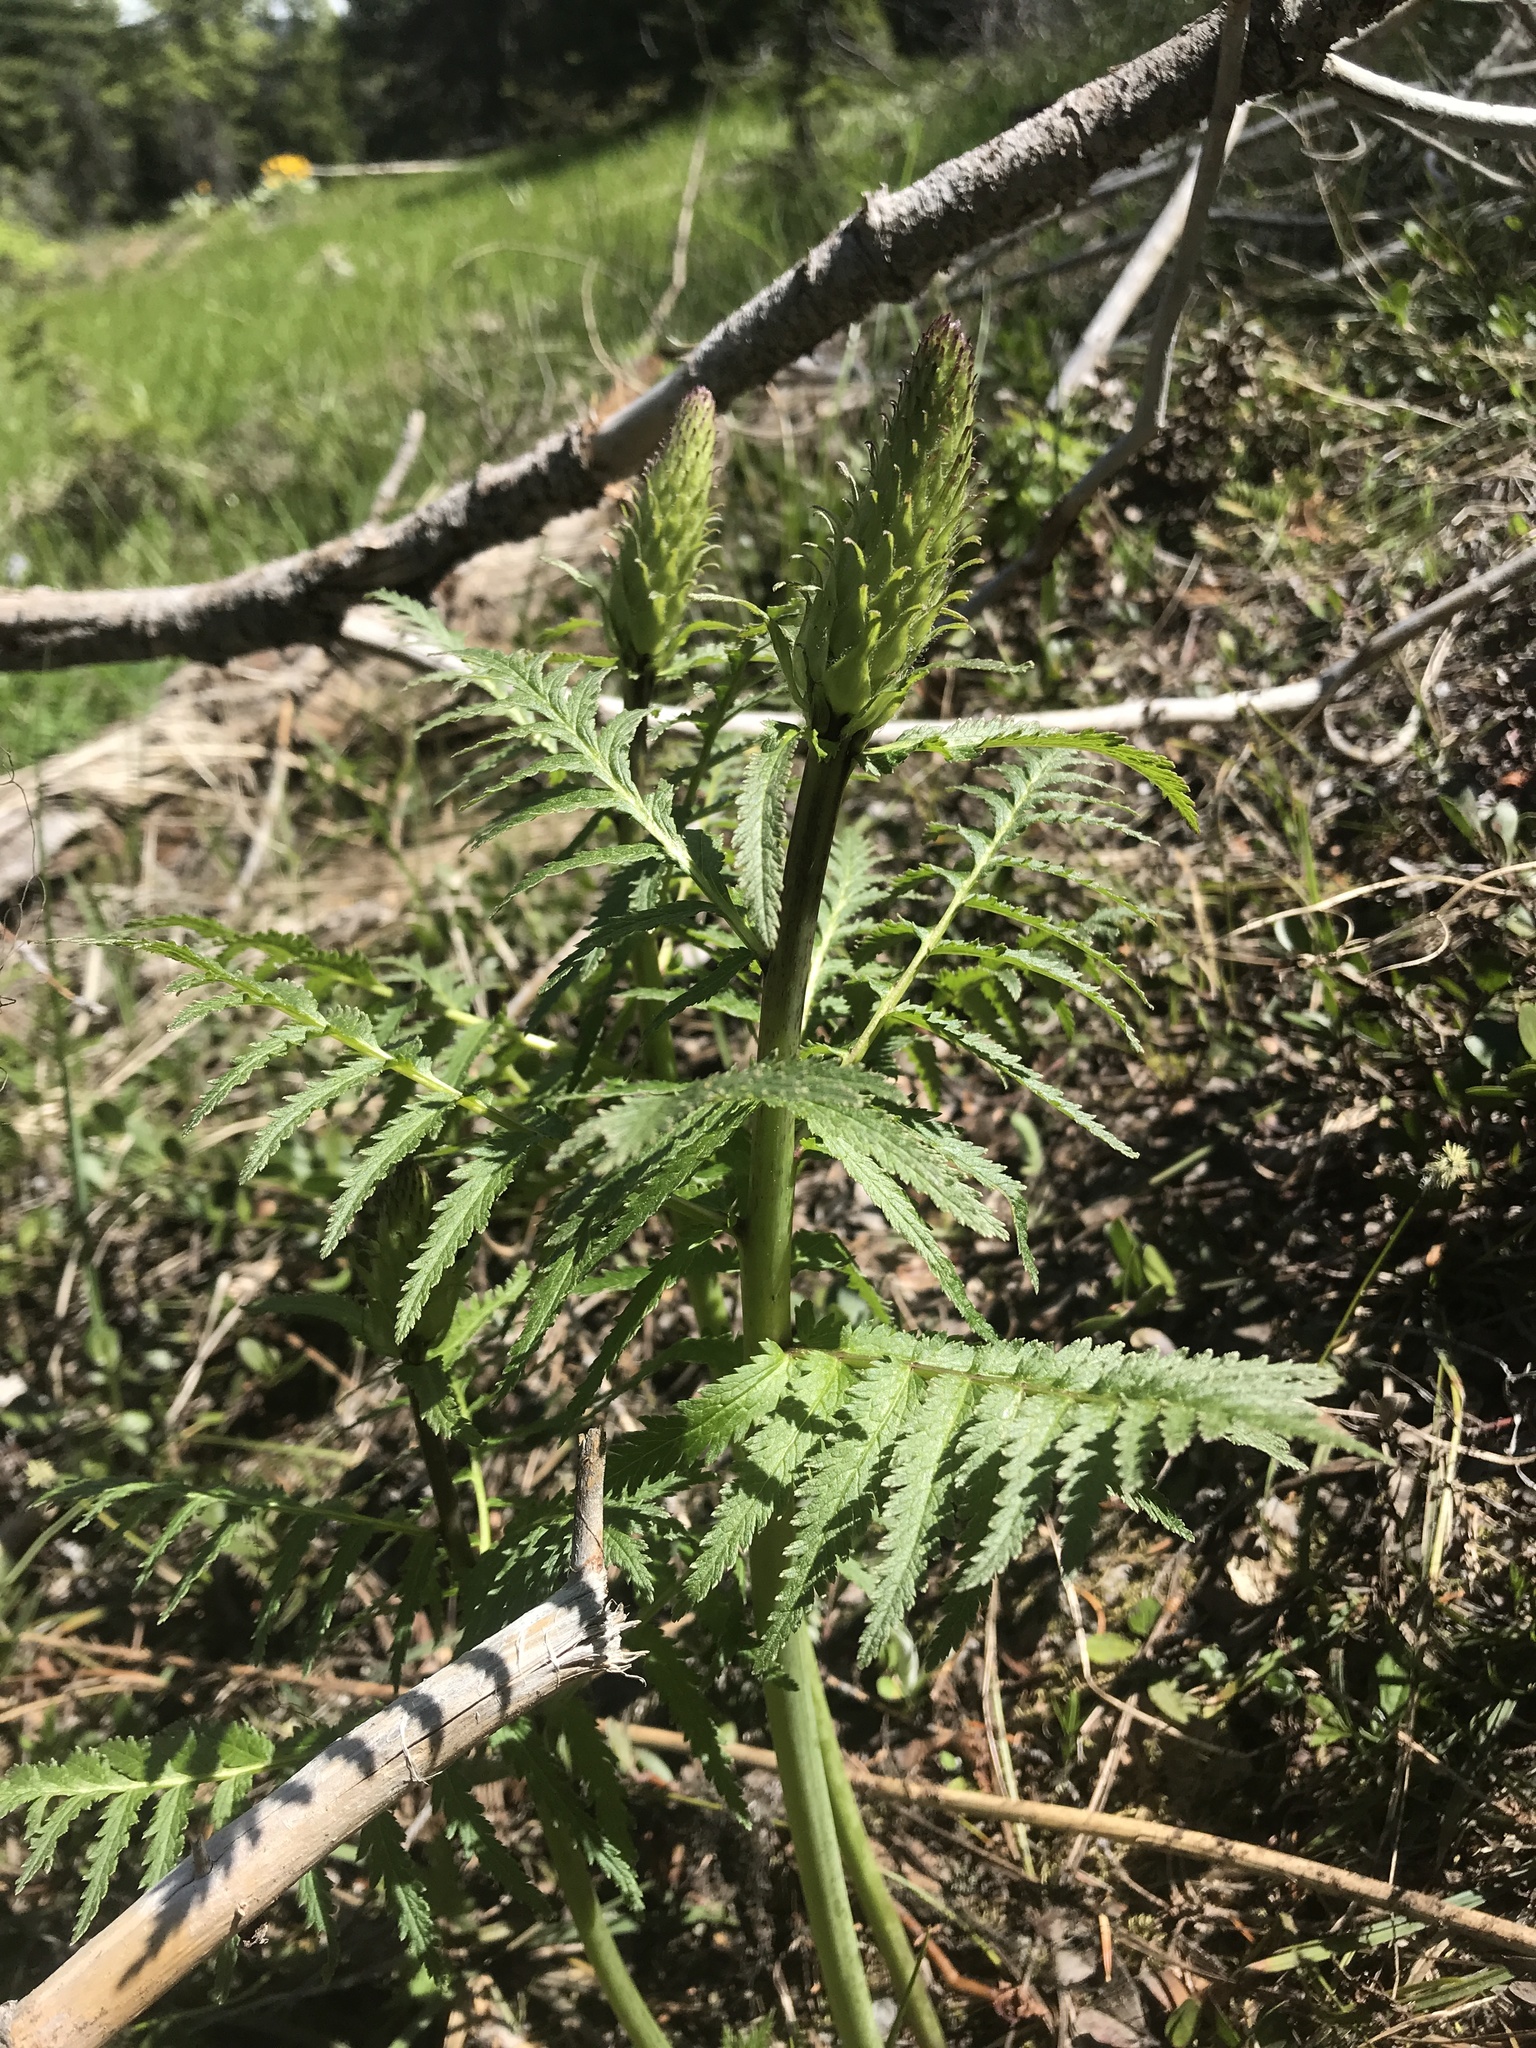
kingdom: Plantae
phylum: Tracheophyta
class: Magnoliopsida
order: Lamiales
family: Orobanchaceae
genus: Pedicularis
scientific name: Pedicularis bracteosa
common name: Bracted lousewort
